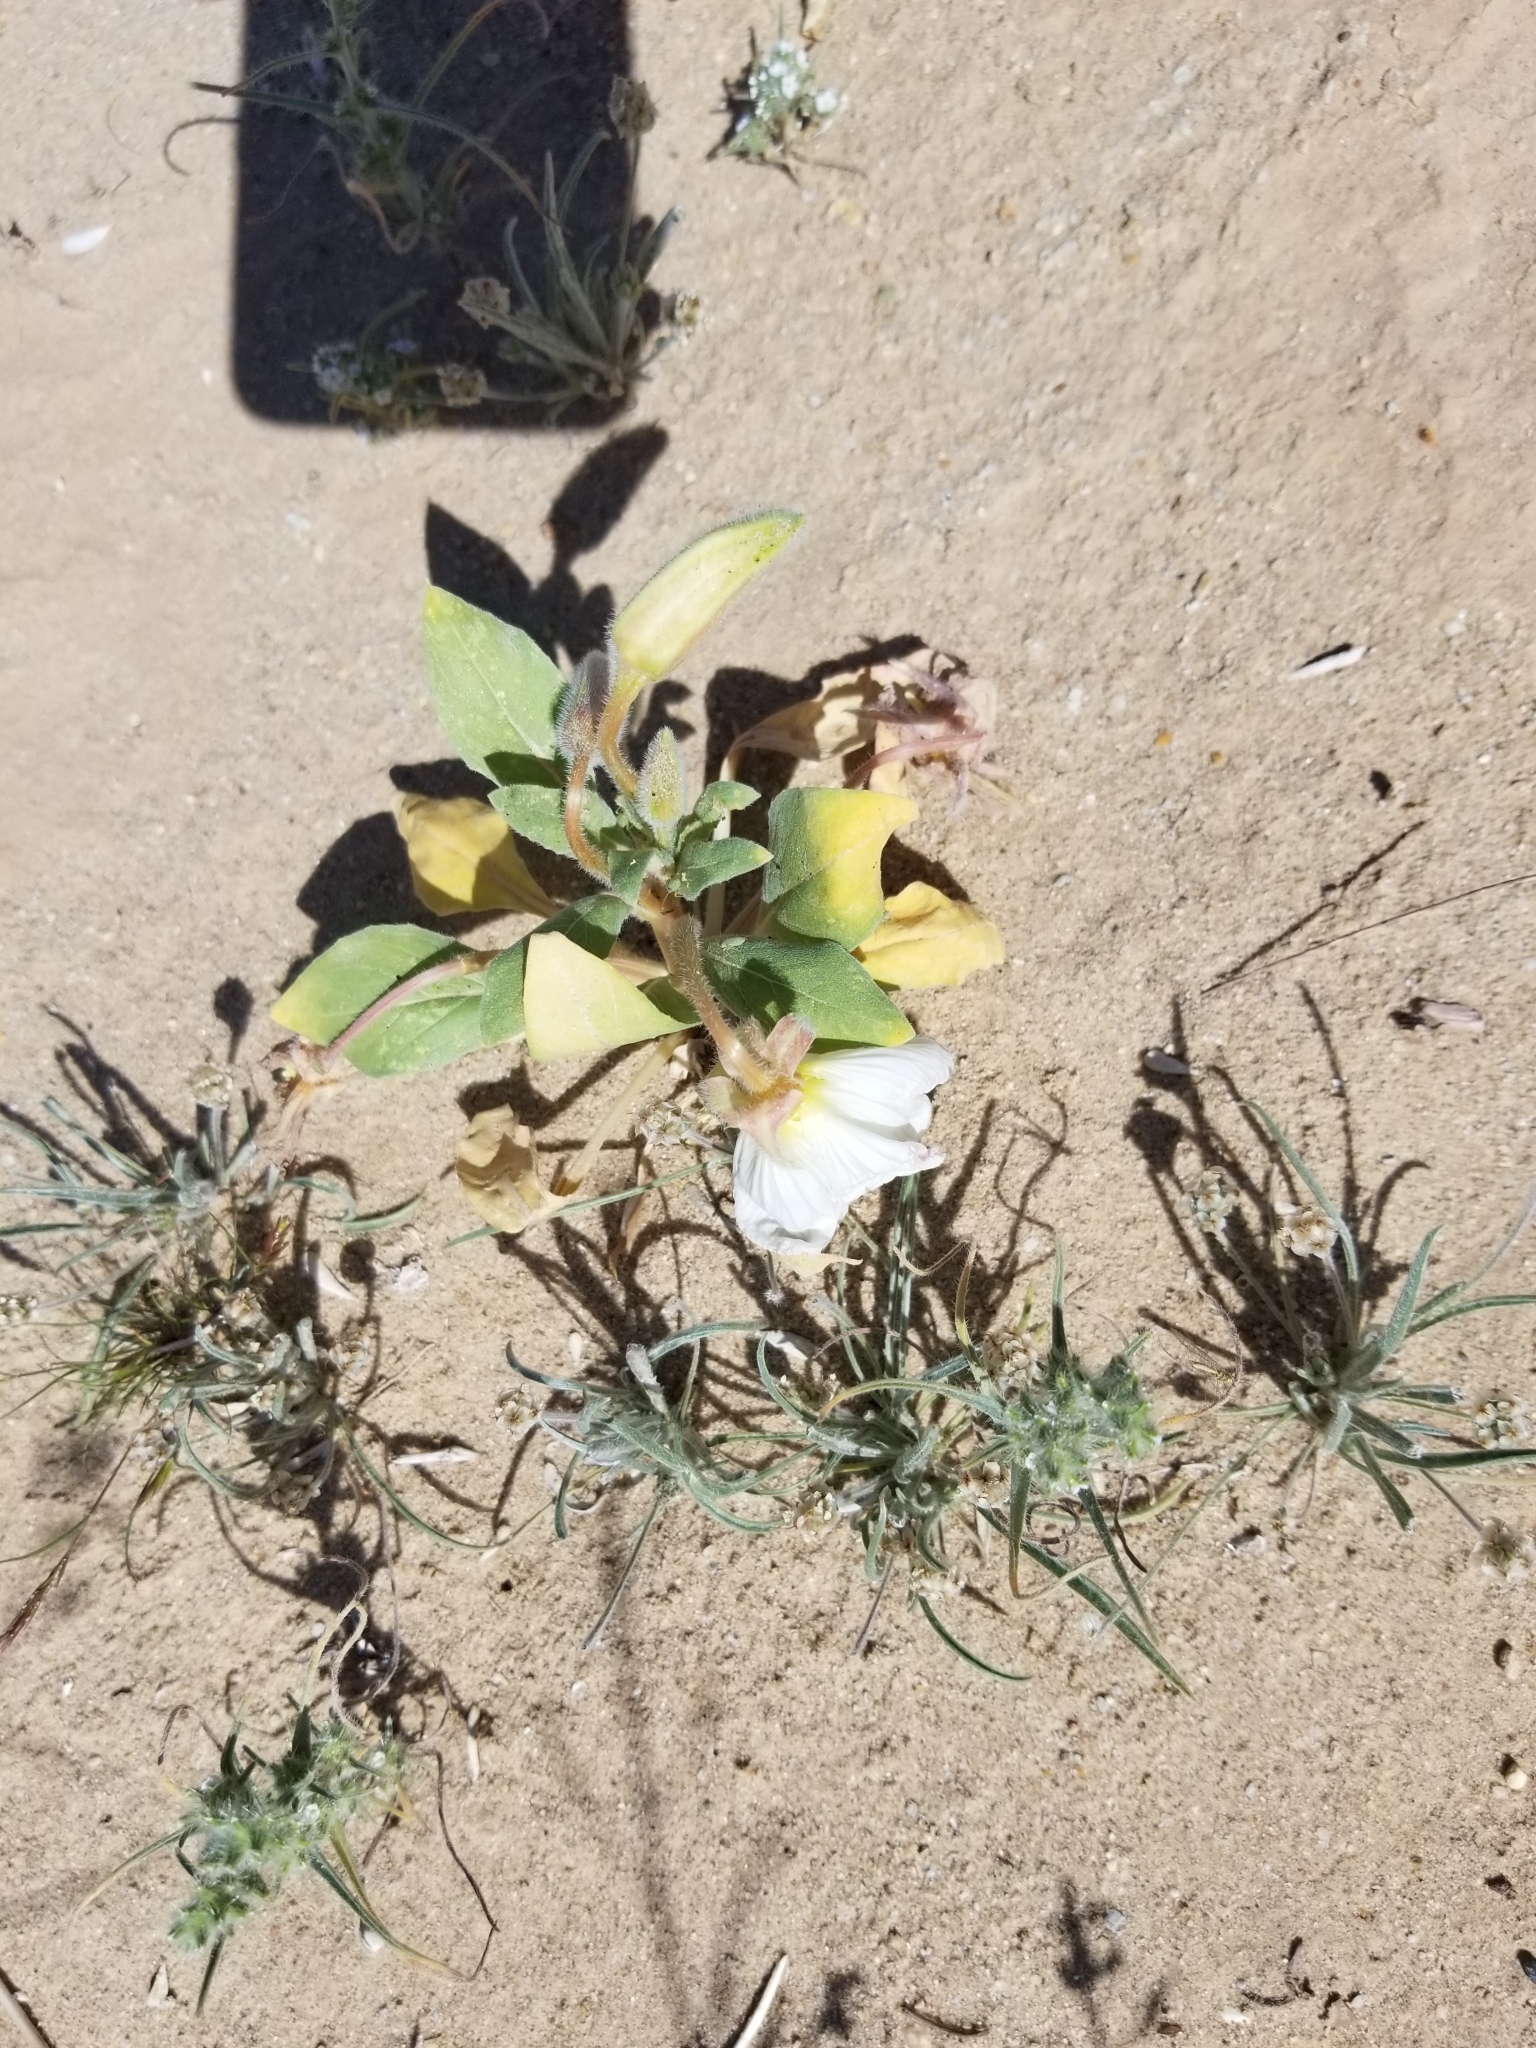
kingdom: Plantae
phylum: Tracheophyta
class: Magnoliopsida
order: Myrtales
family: Onagraceae
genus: Oenothera
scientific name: Oenothera deltoides
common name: Basket evening-primrose
